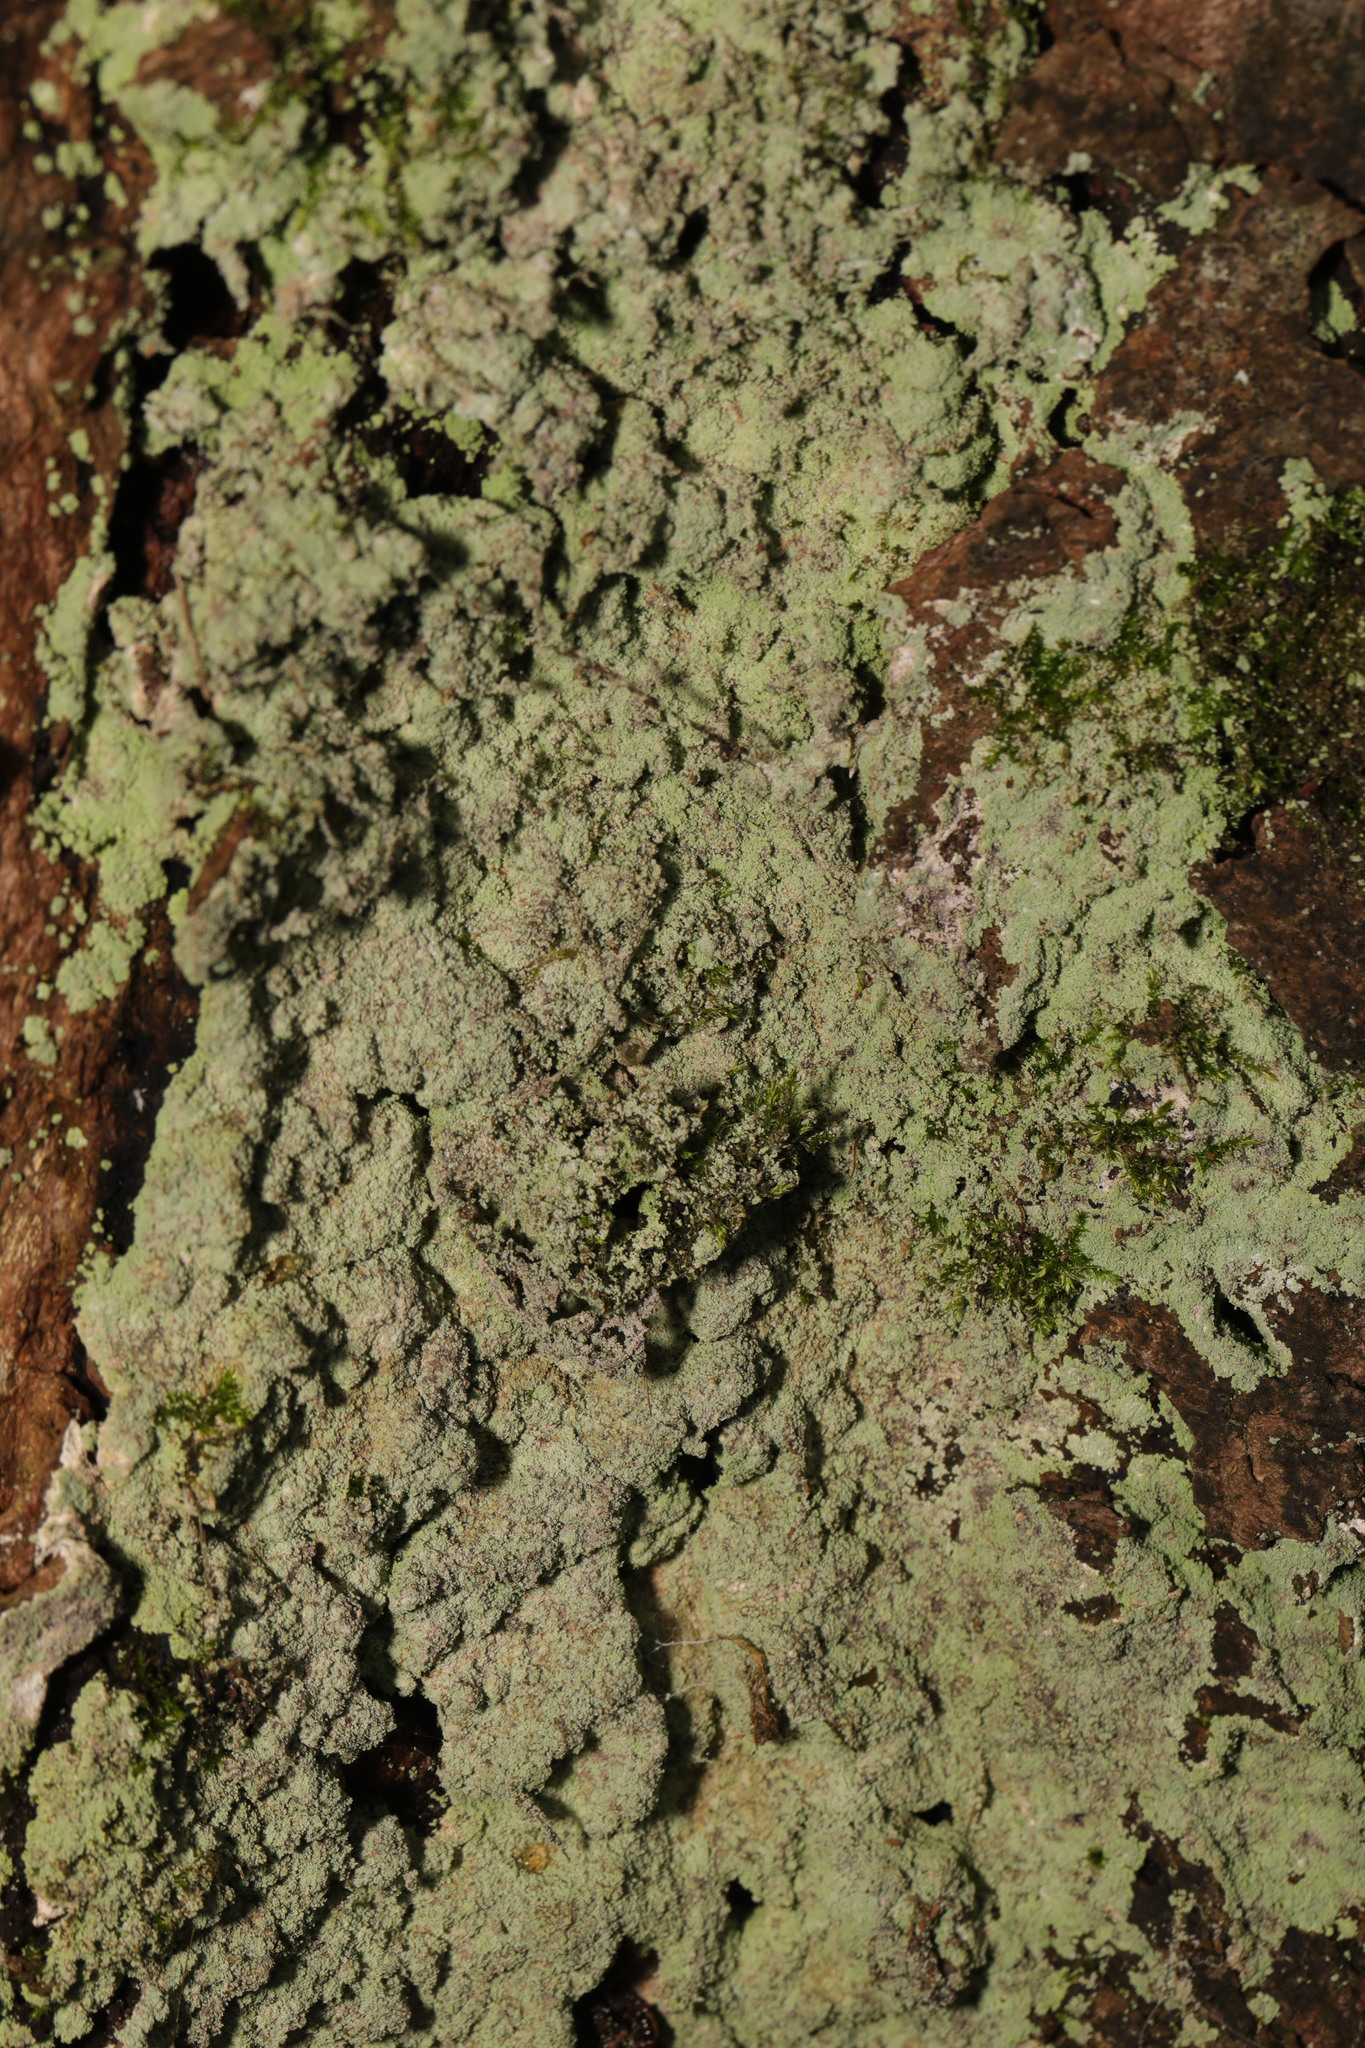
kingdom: Fungi
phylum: Ascomycota
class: Lecanoromycetes
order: Lecanorales
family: Stereocaulaceae
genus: Lepraria
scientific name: Lepraria
